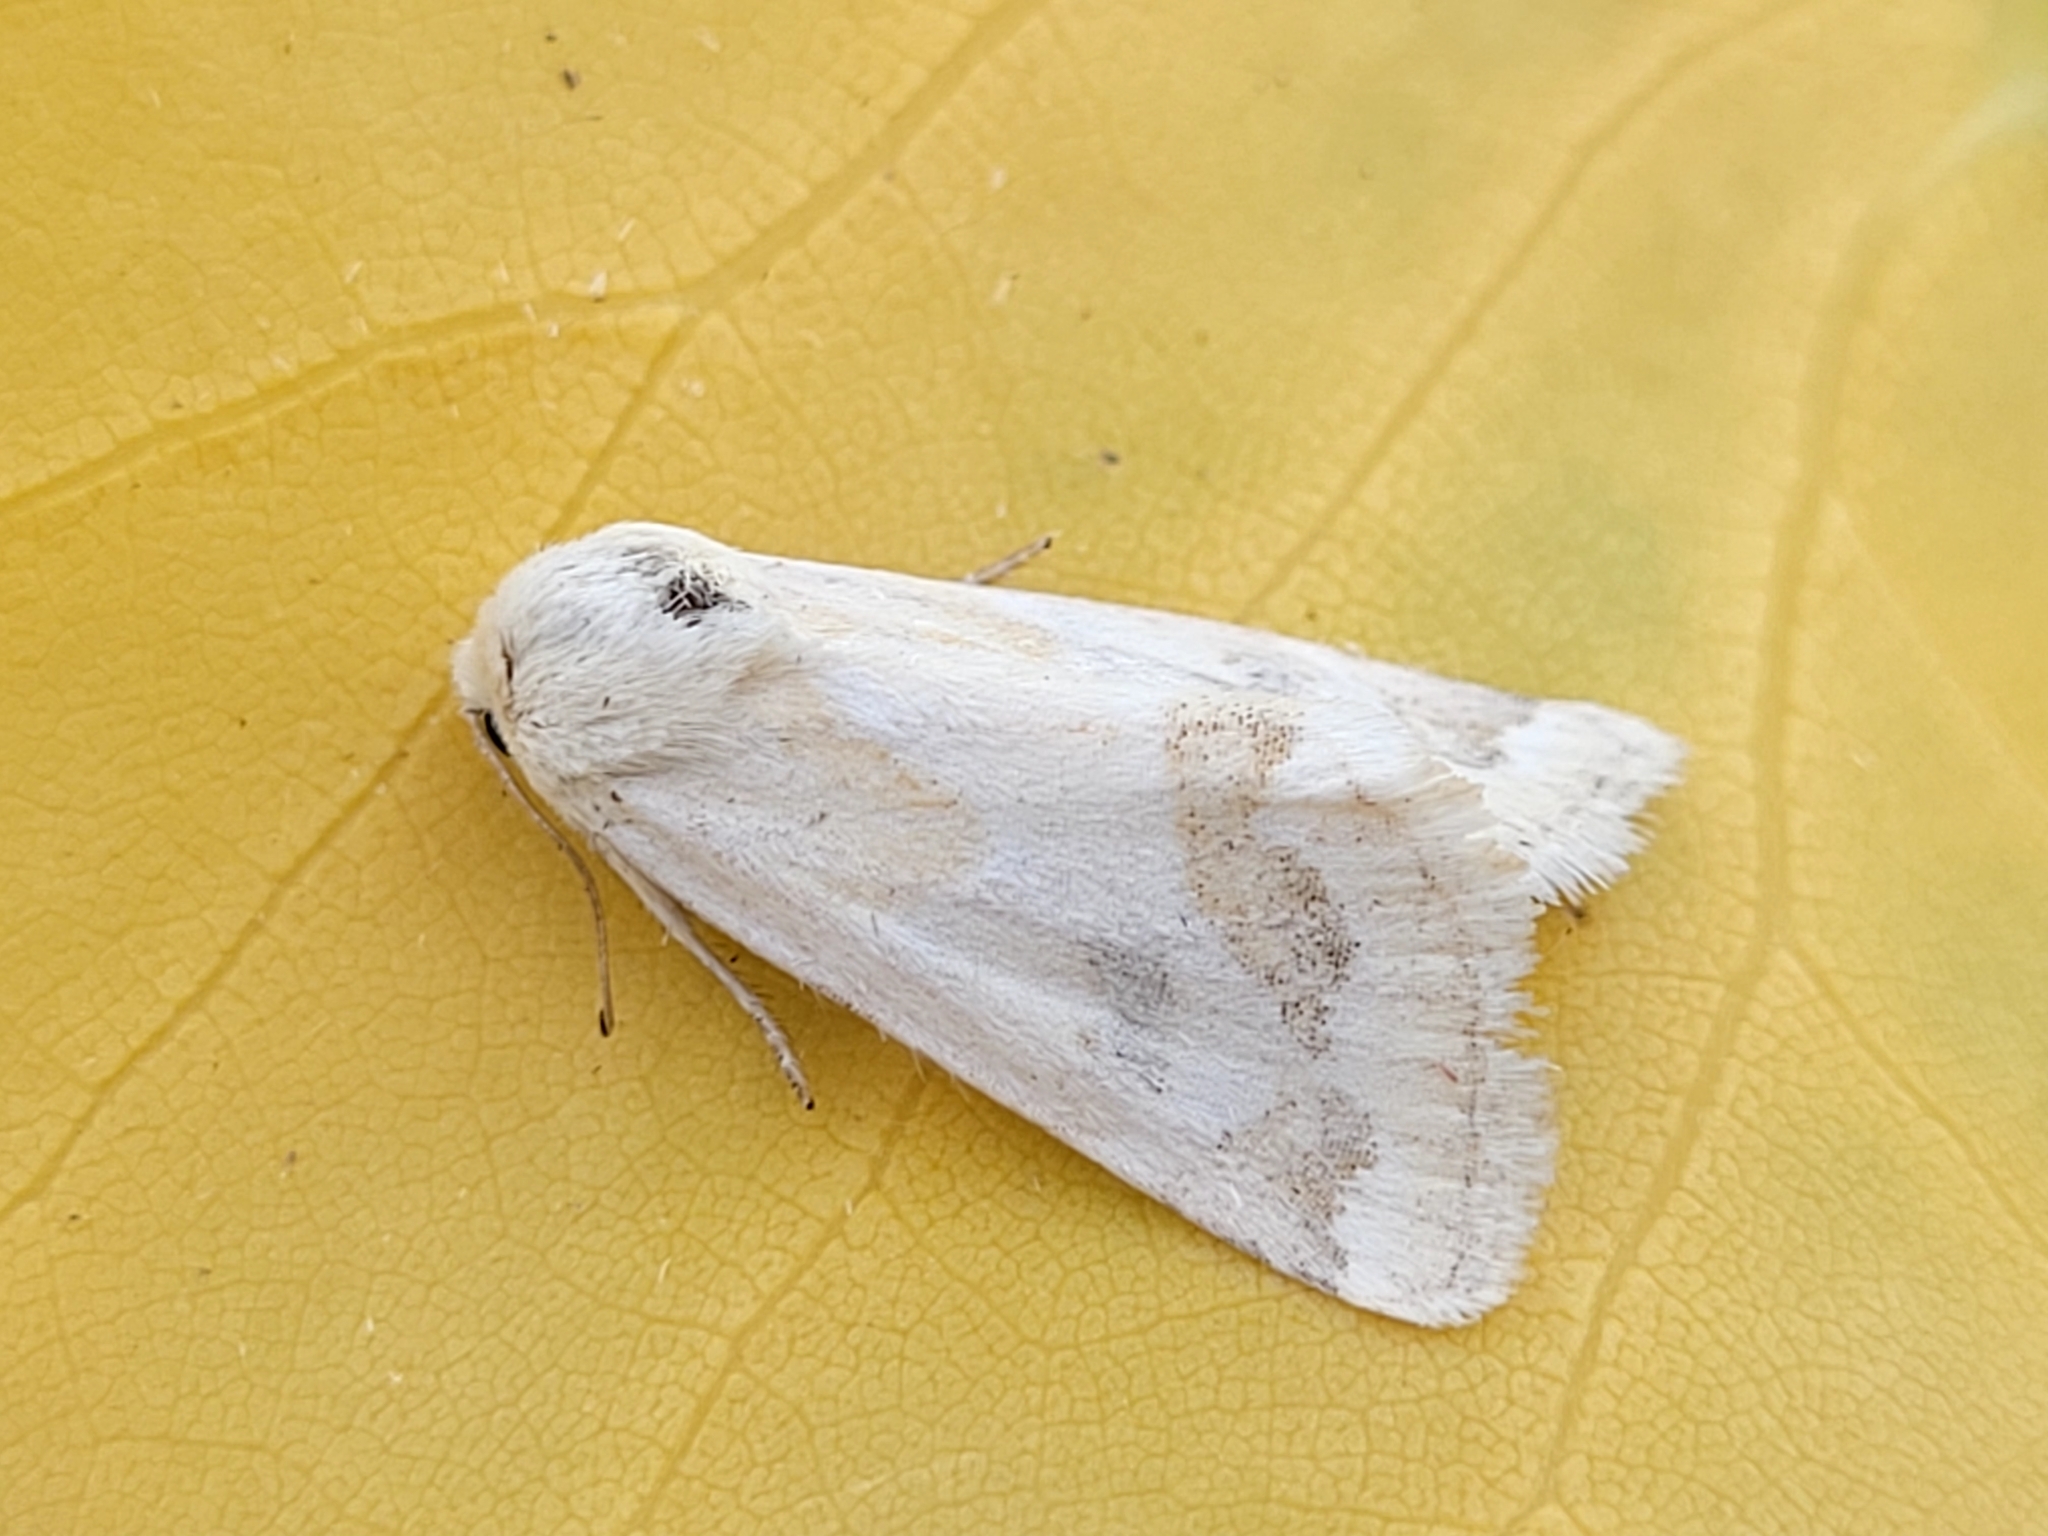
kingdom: Animalia
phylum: Arthropoda
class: Insecta
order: Lepidoptera
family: Noctuidae
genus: Schinia
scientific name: Schinia acutilinea
